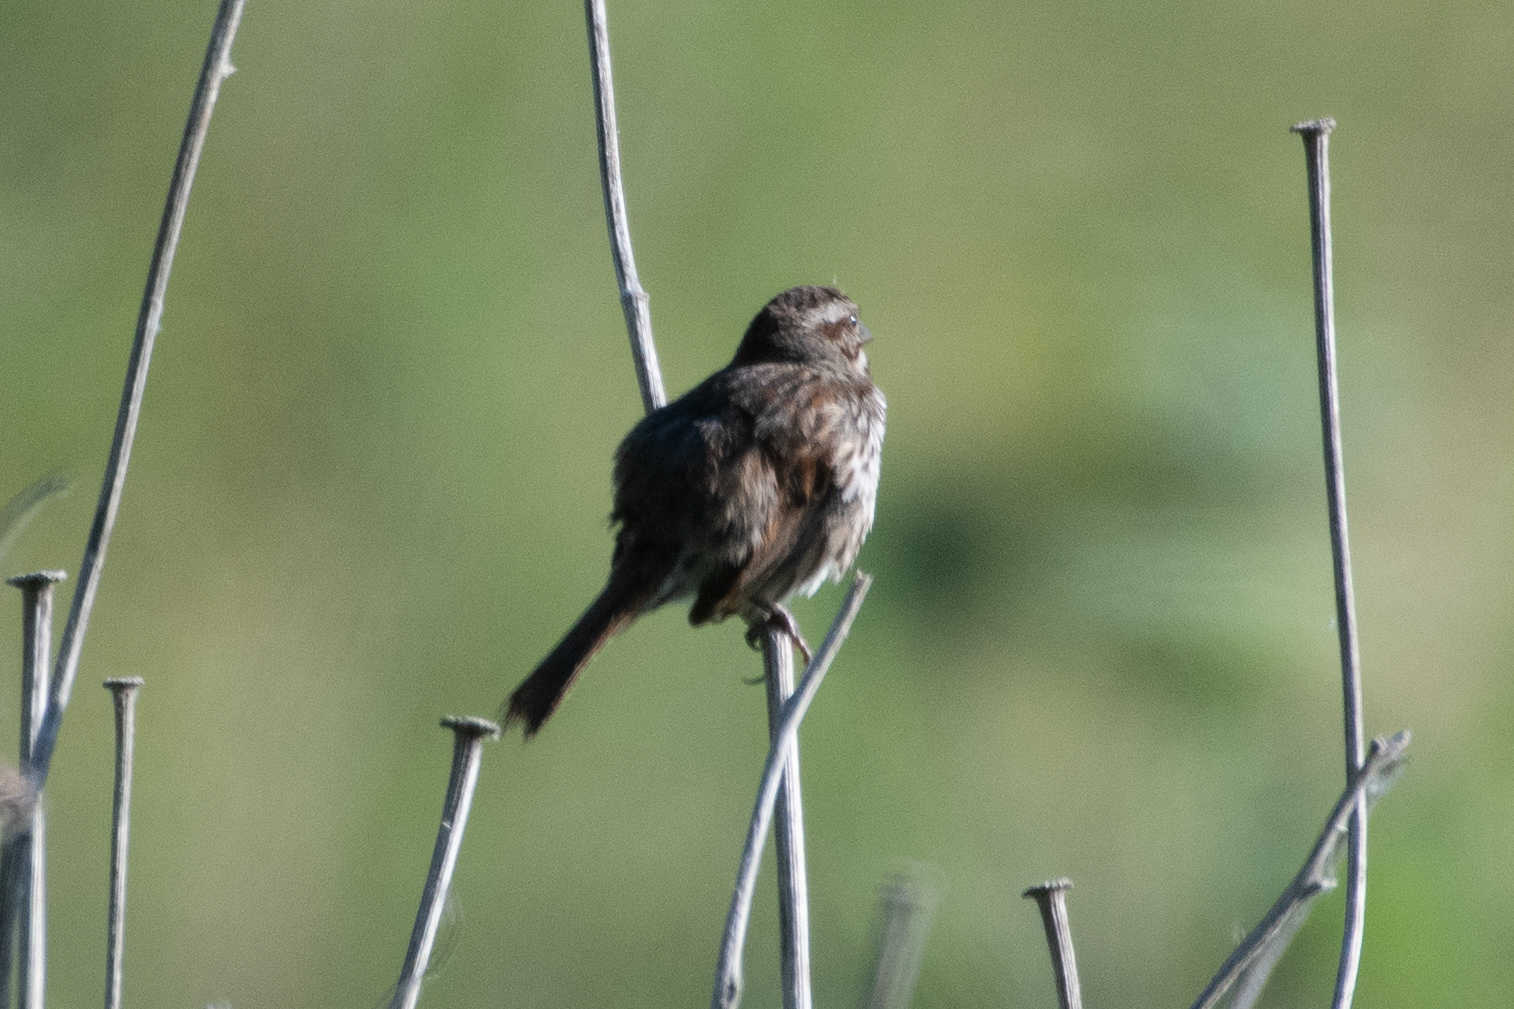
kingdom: Animalia
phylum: Chordata
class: Aves
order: Passeriformes
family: Passerellidae
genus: Melospiza
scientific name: Melospiza melodia
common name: Song sparrow
